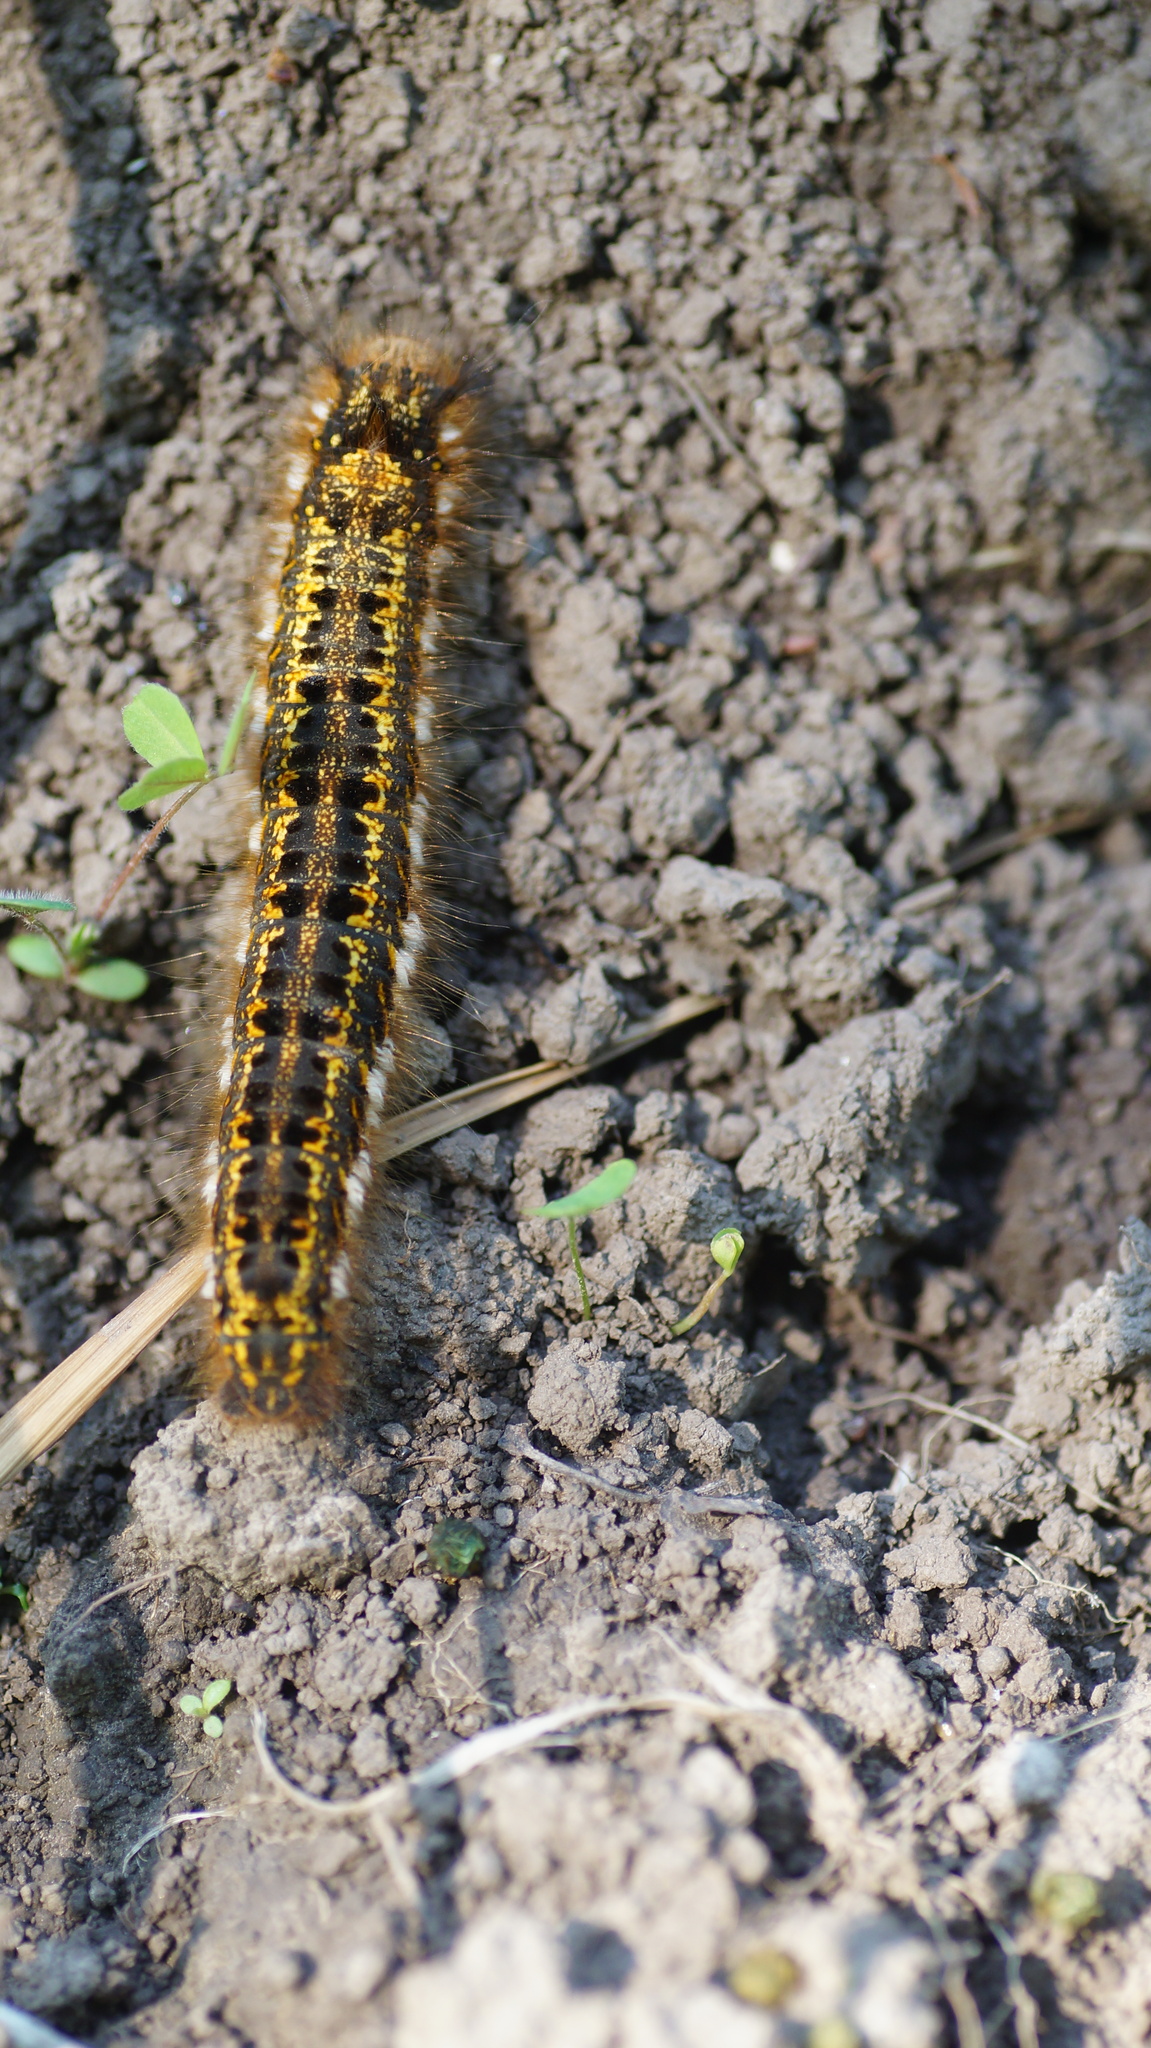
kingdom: Animalia
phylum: Arthropoda
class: Insecta
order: Lepidoptera
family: Lasiocampidae
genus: Euthrix
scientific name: Euthrix potatoria
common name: Drinker
